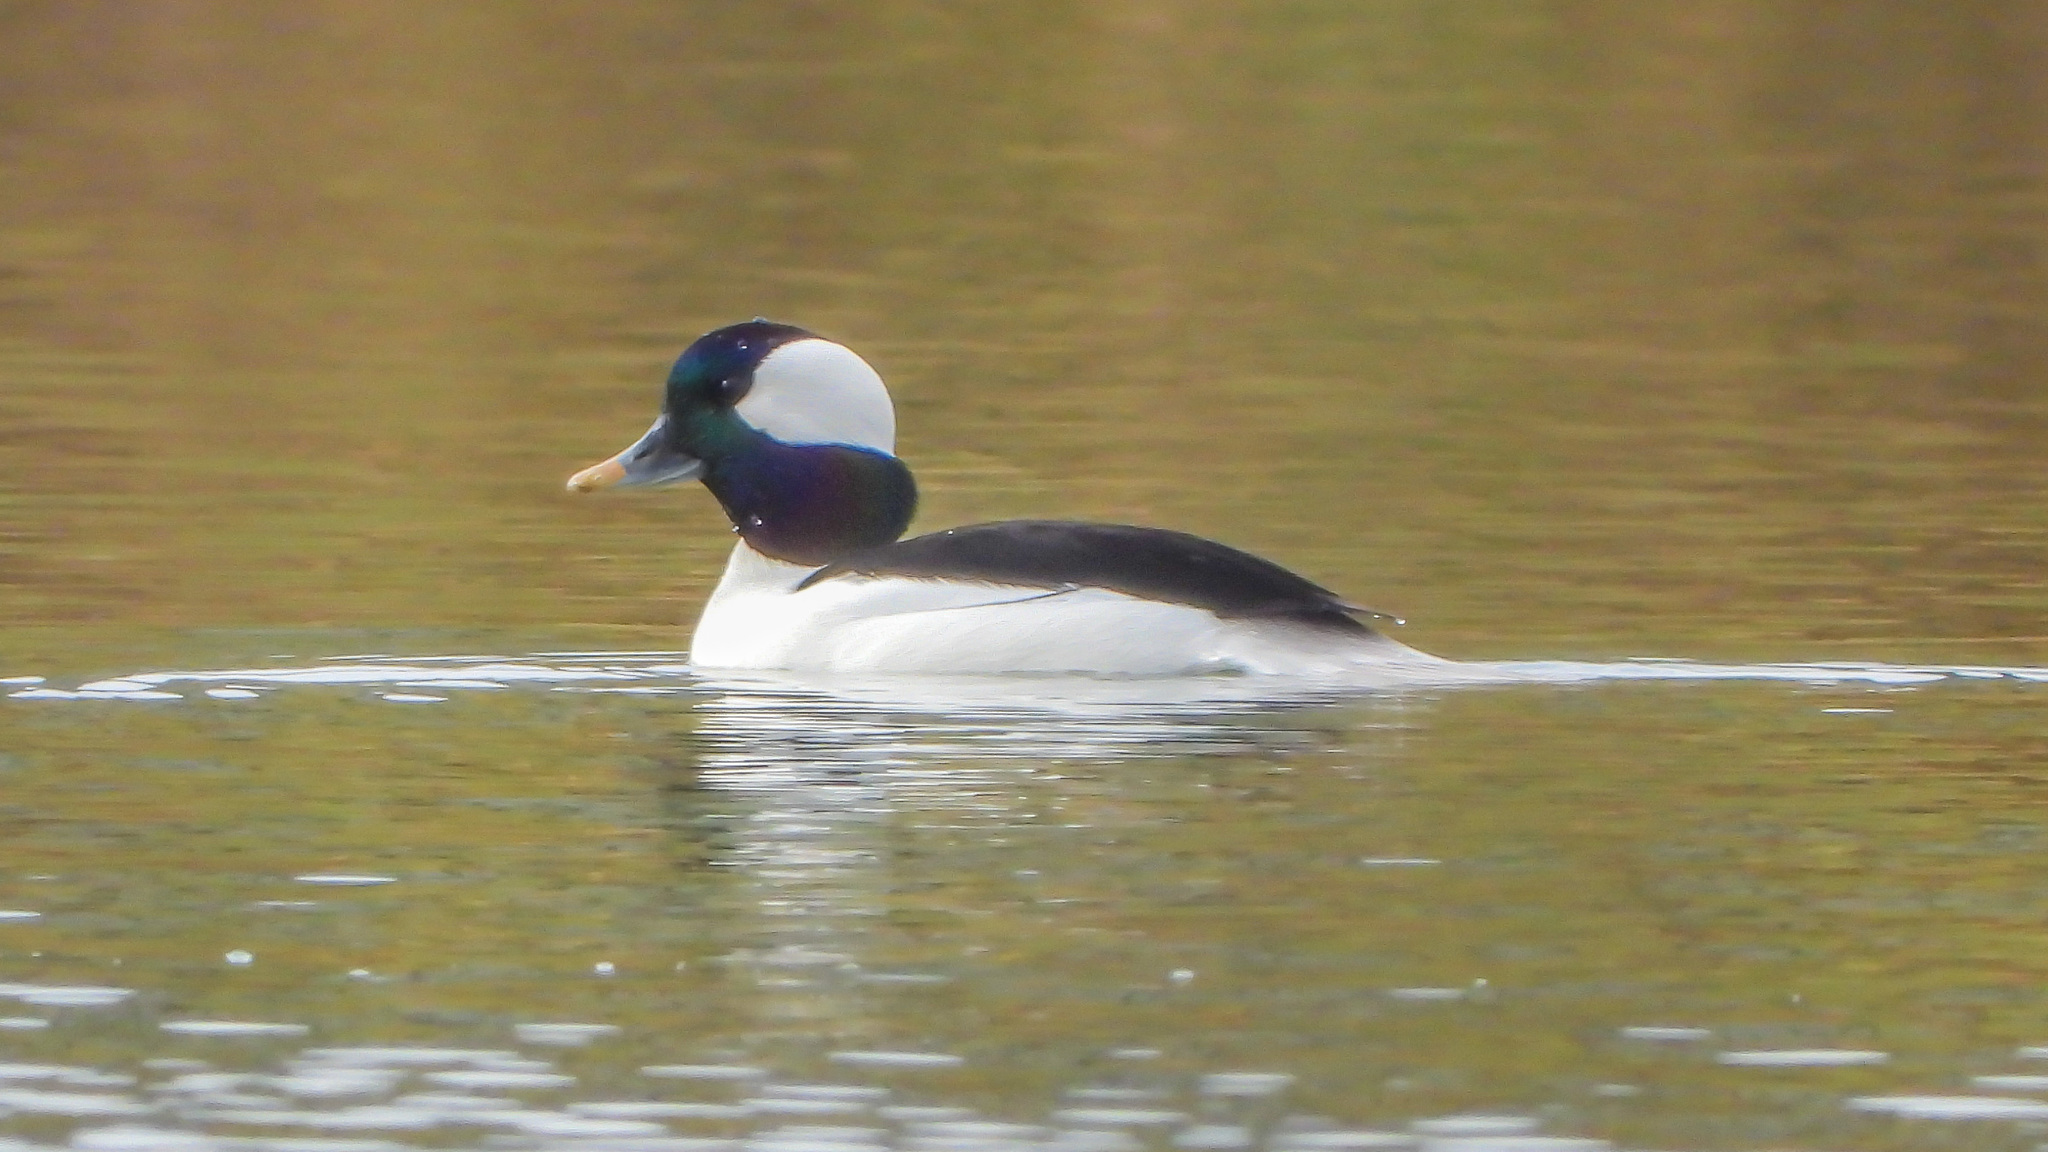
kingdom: Animalia
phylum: Chordata
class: Aves
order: Anseriformes
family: Anatidae
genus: Bucephala
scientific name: Bucephala albeola
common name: Bufflehead
